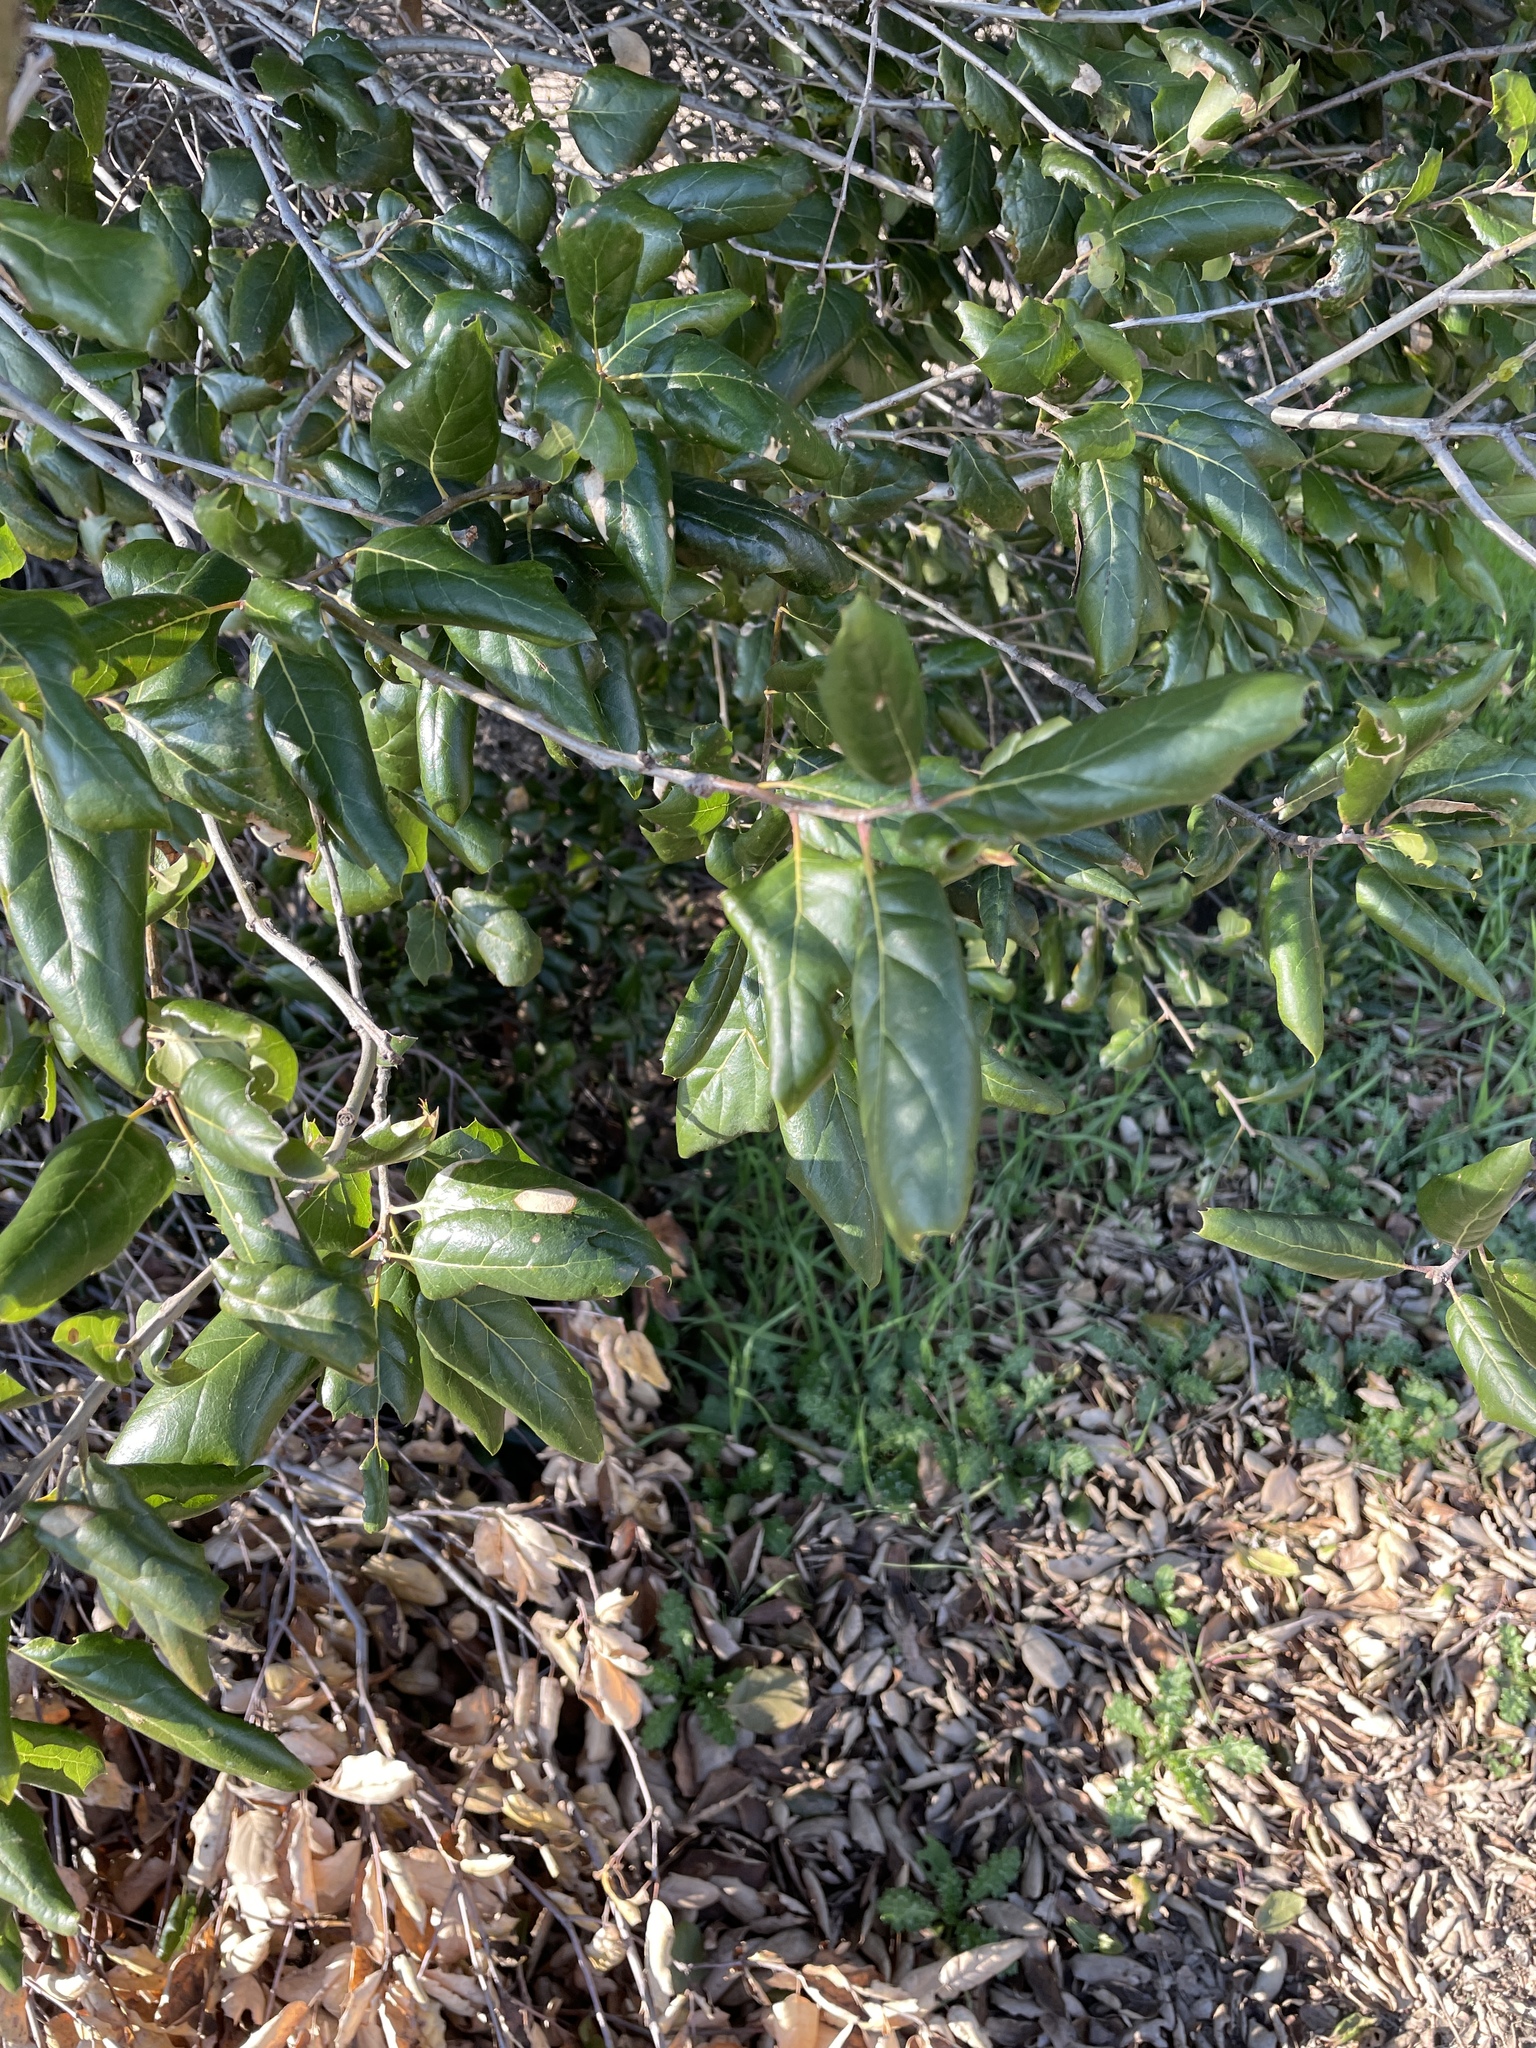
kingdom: Plantae
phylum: Tracheophyta
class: Magnoliopsida
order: Fagales
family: Fagaceae
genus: Quercus
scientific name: Quercus agrifolia
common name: California live oak
